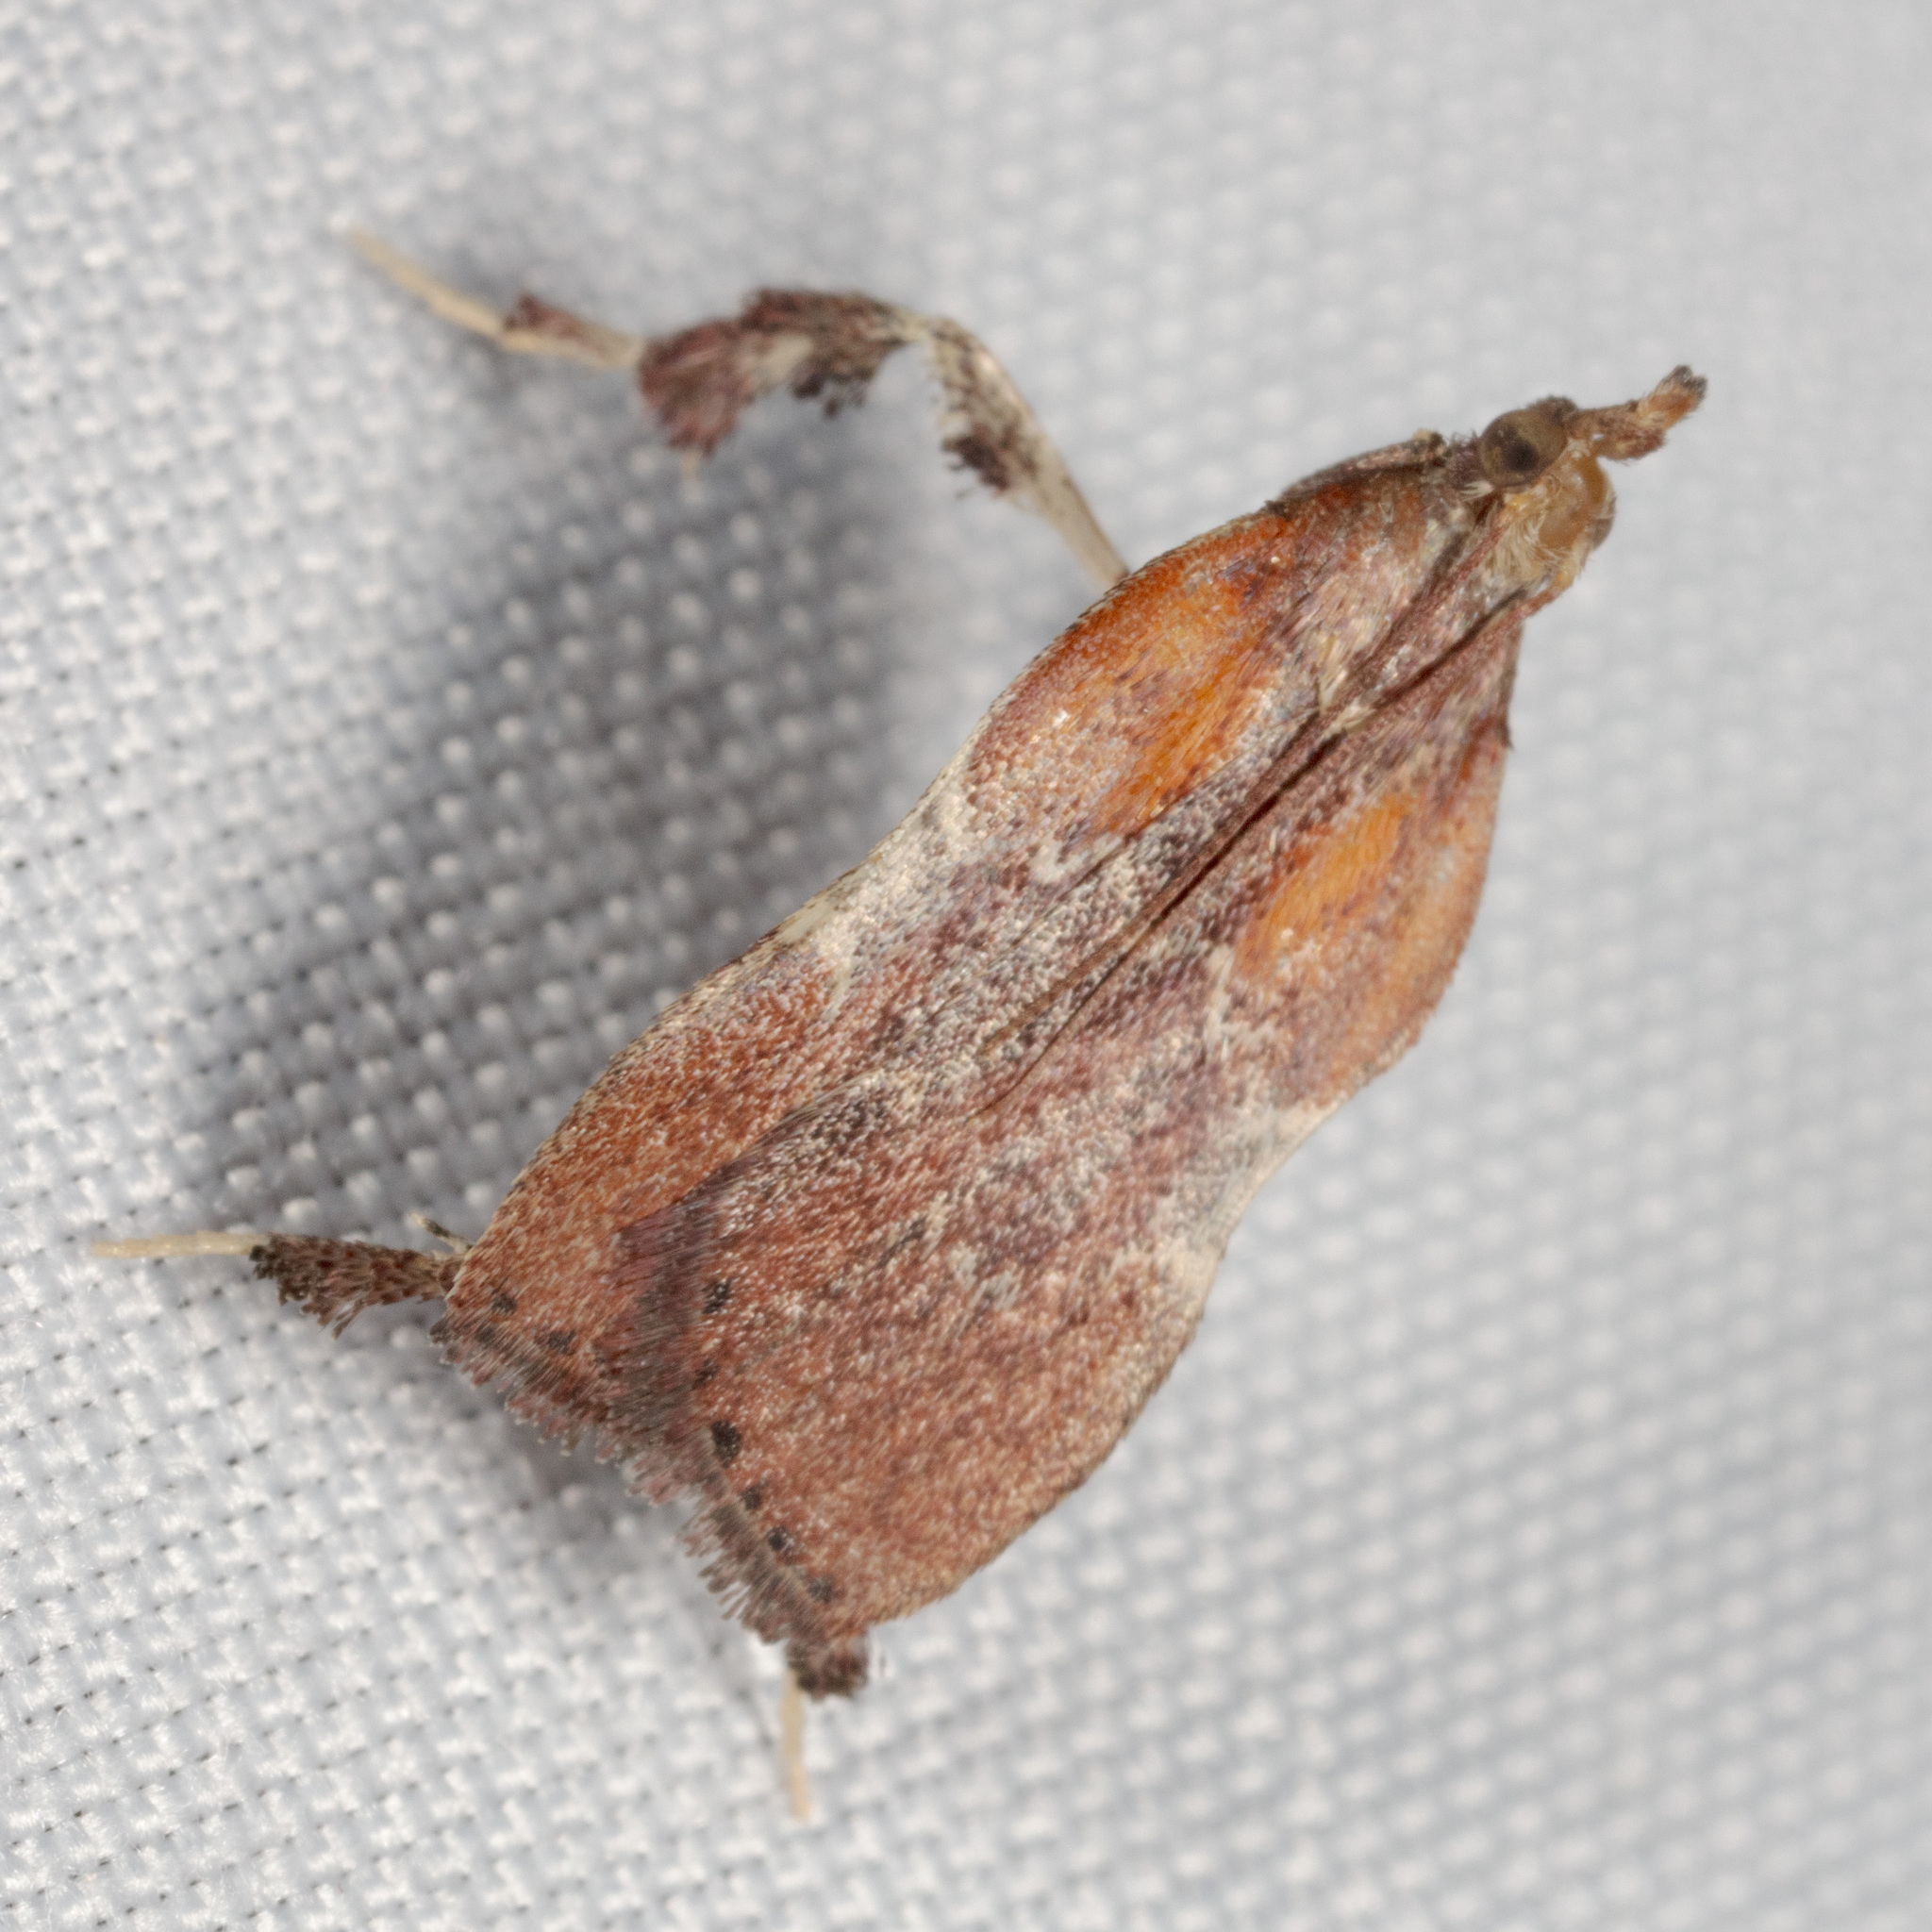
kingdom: Animalia
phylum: Arthropoda
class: Insecta
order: Lepidoptera
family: Pyralidae
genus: Galasa
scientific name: Galasa nigrinodis
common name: Boxwood leaftier moth
